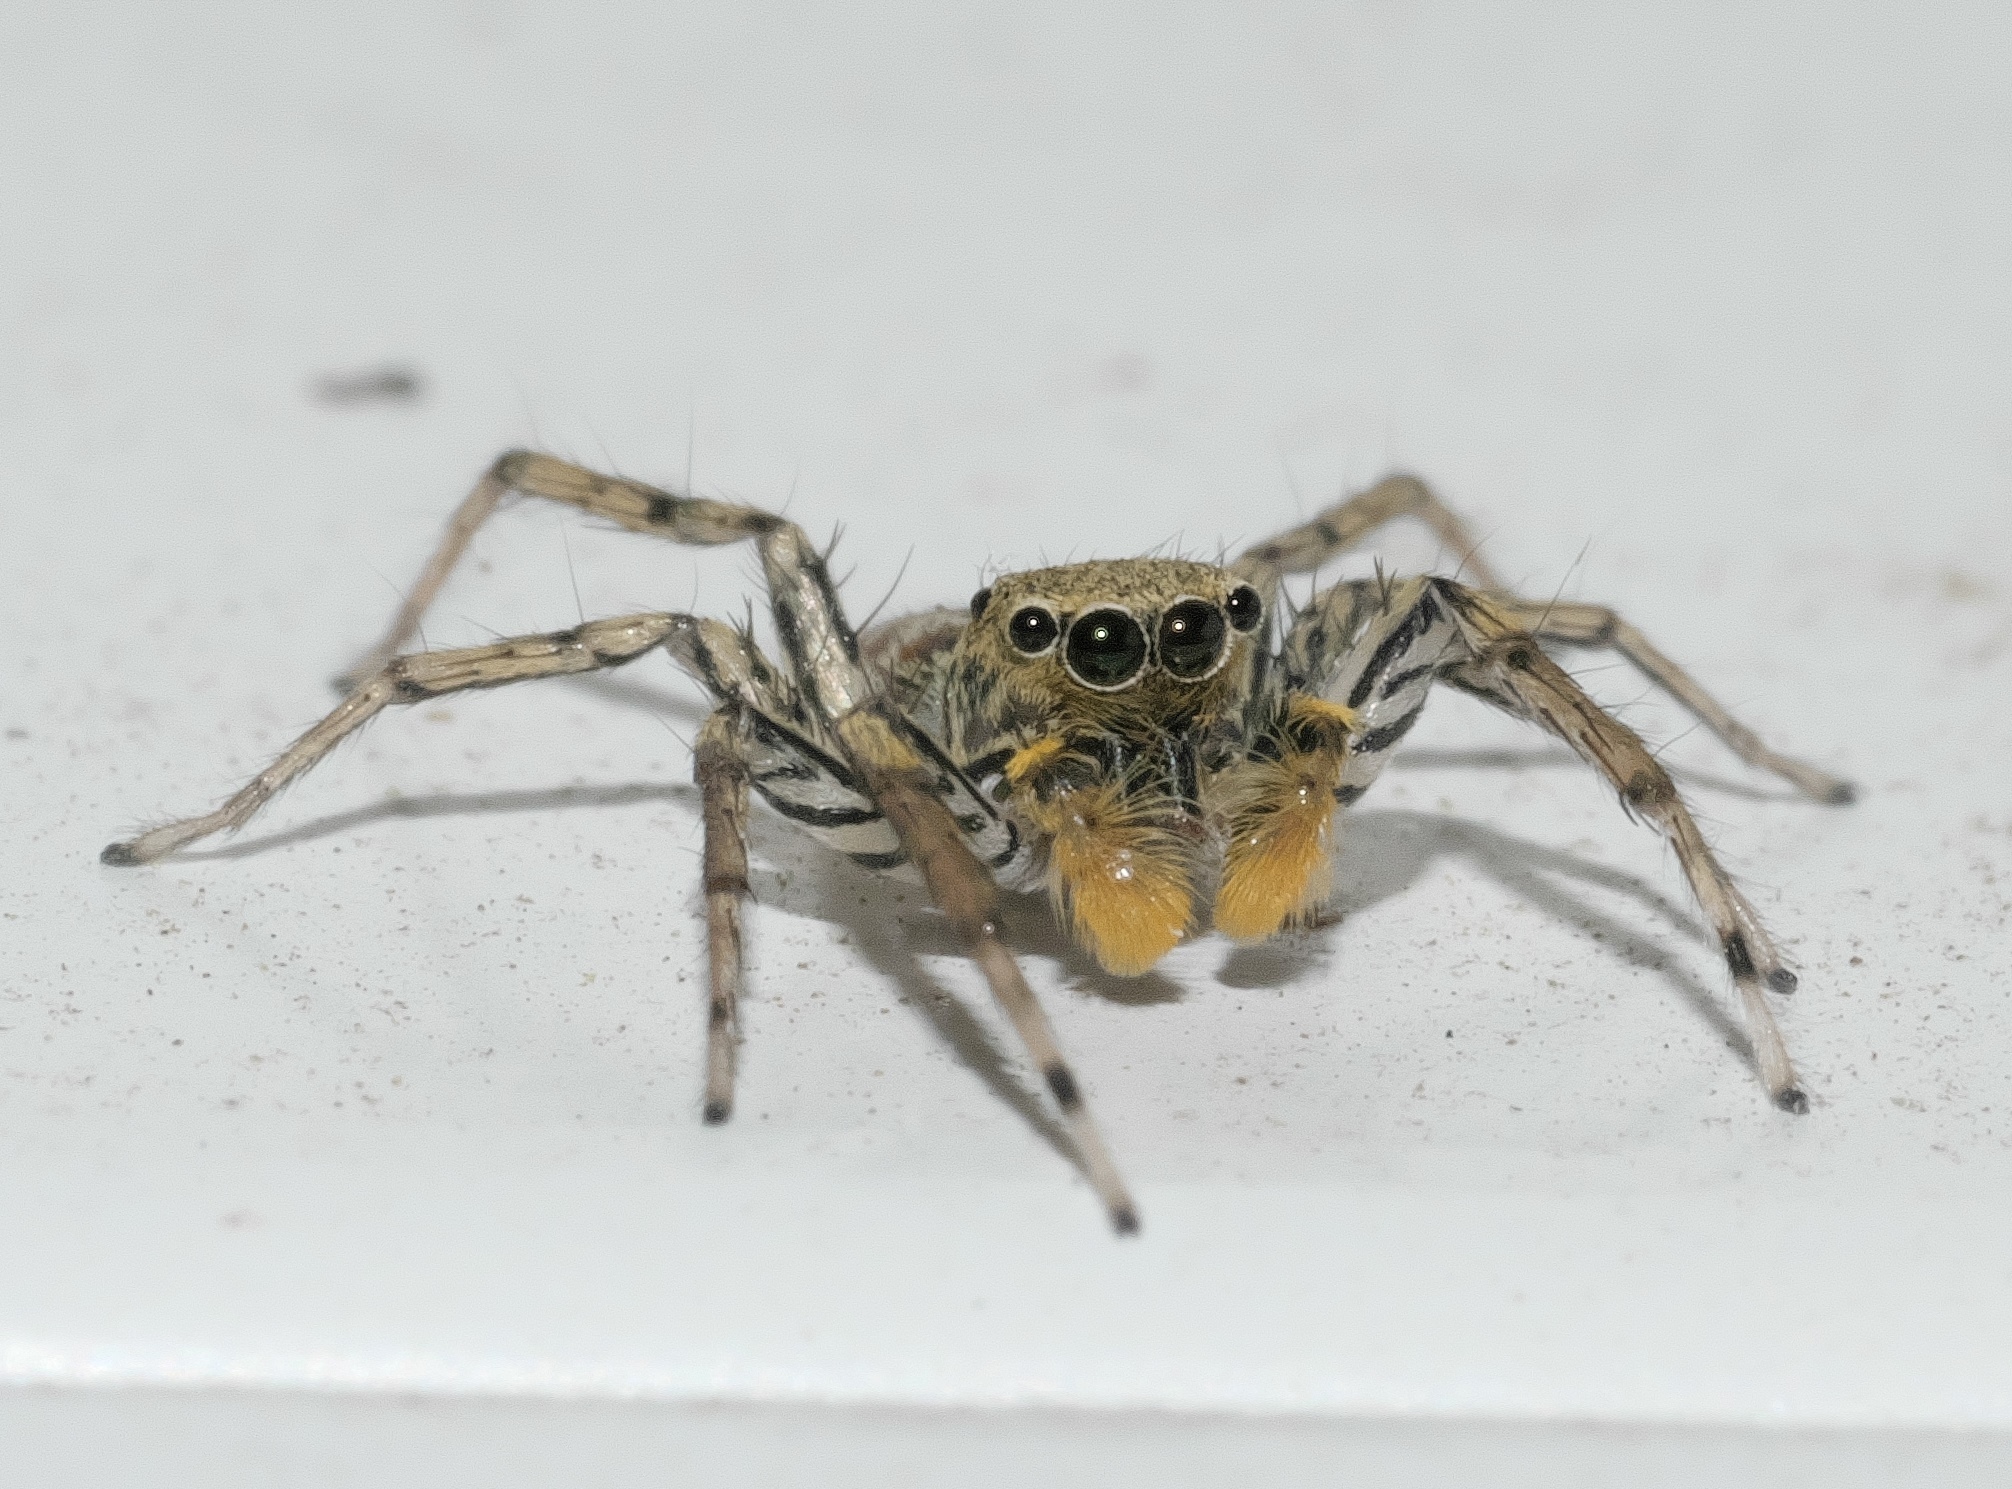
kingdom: Animalia
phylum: Arthropoda
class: Arachnida
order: Araneae
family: Salticidae
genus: Maevia
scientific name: Maevia inclemens
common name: Dimorphic jumper
